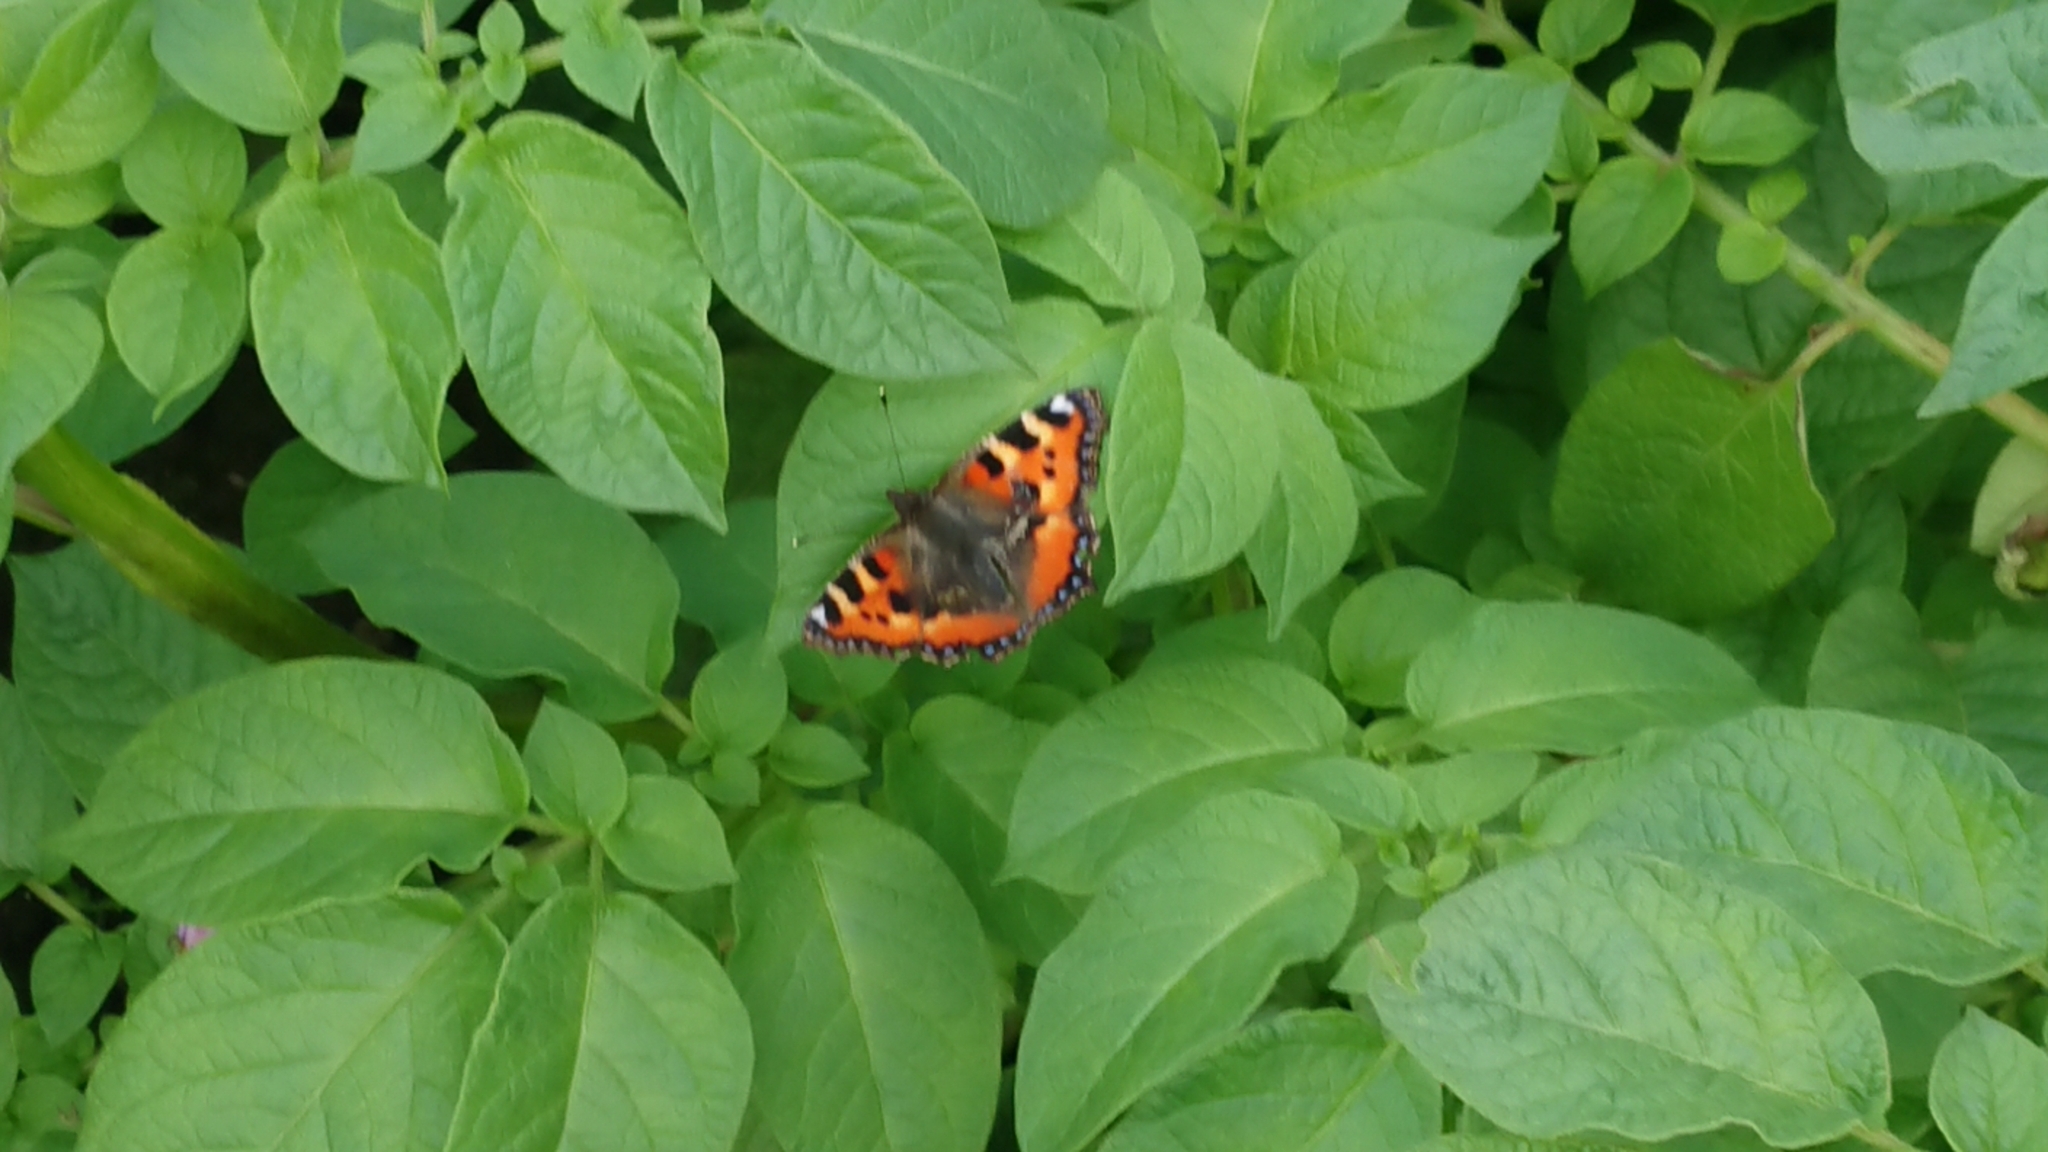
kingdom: Animalia
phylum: Arthropoda
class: Insecta
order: Lepidoptera
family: Nymphalidae
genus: Aglais
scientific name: Aglais urticae
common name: Small tortoiseshell
